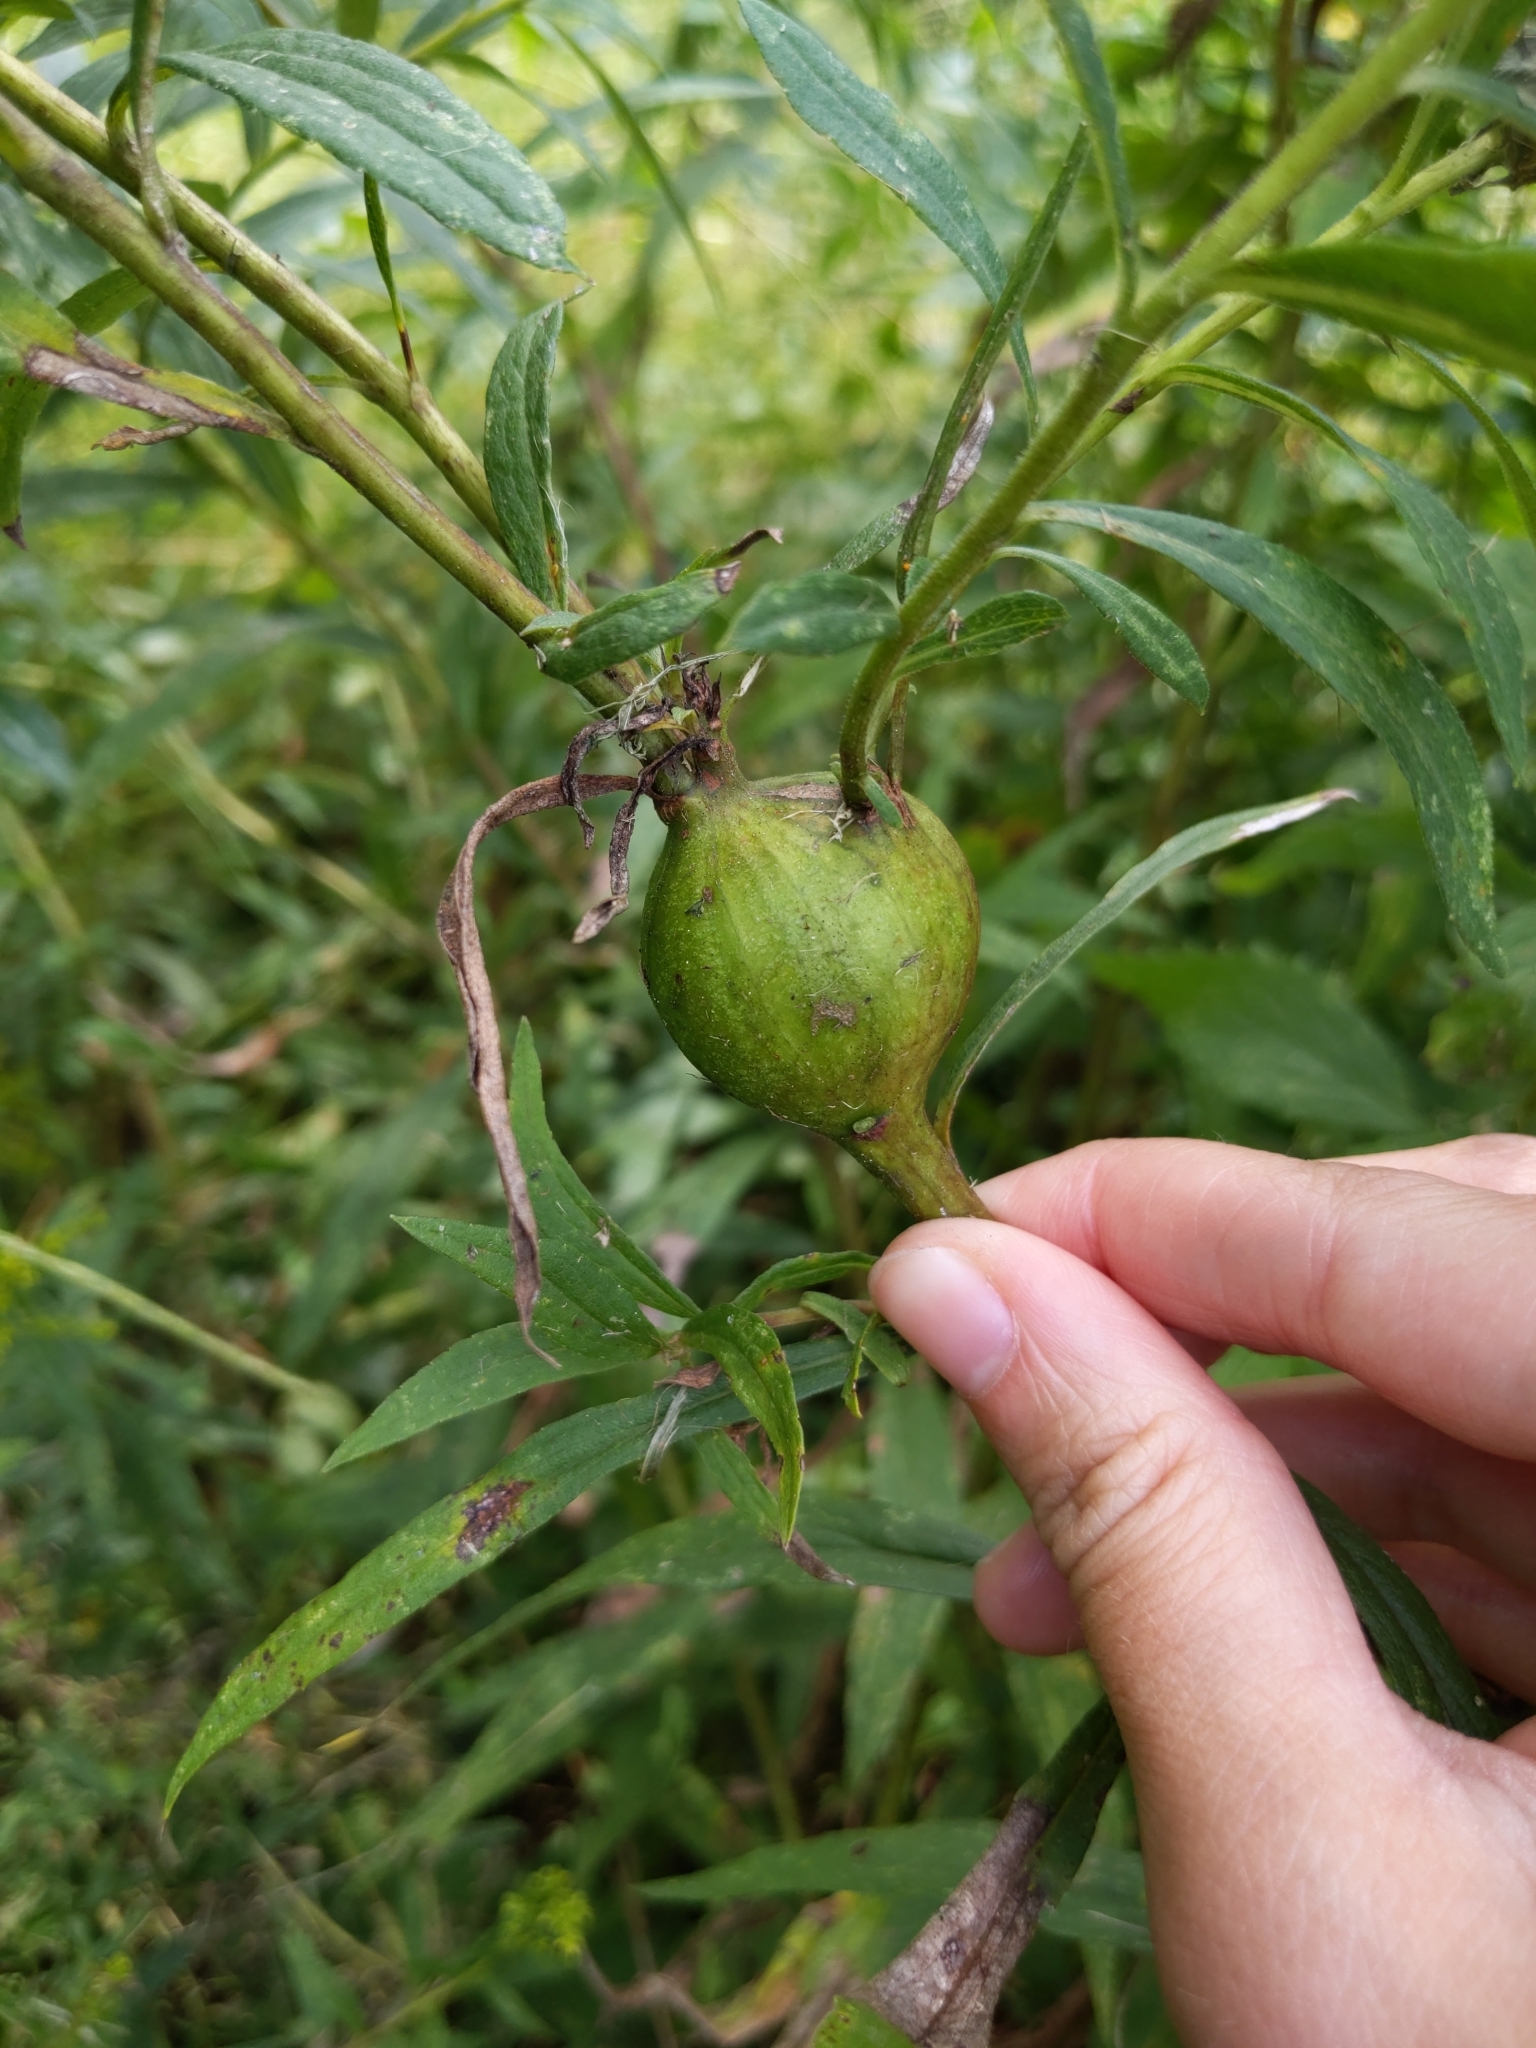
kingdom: Animalia
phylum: Arthropoda
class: Insecta
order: Diptera
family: Tephritidae
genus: Eurosta
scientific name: Eurosta solidaginis
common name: Goldenrod gall fly
